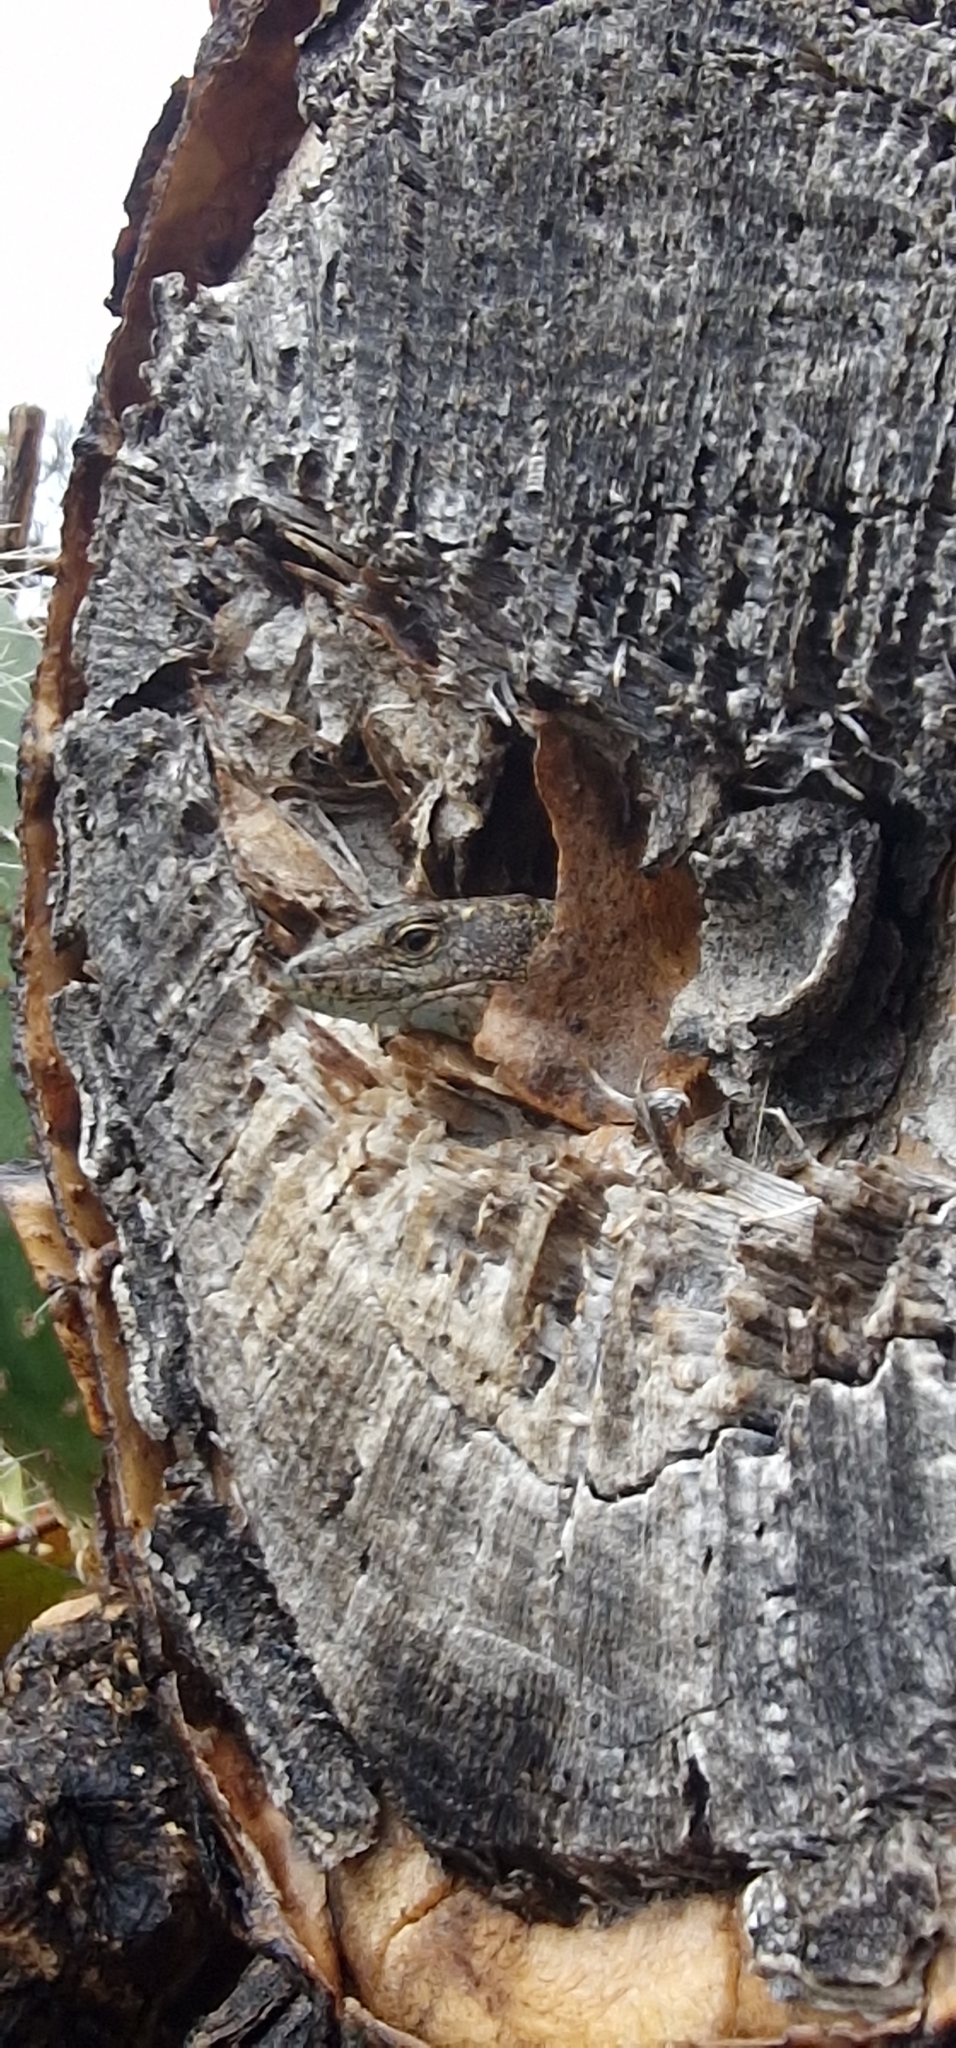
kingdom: Animalia
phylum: Chordata
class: Squamata
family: Lacertidae
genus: Teira
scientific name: Teira dugesii
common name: Madeira lizard
